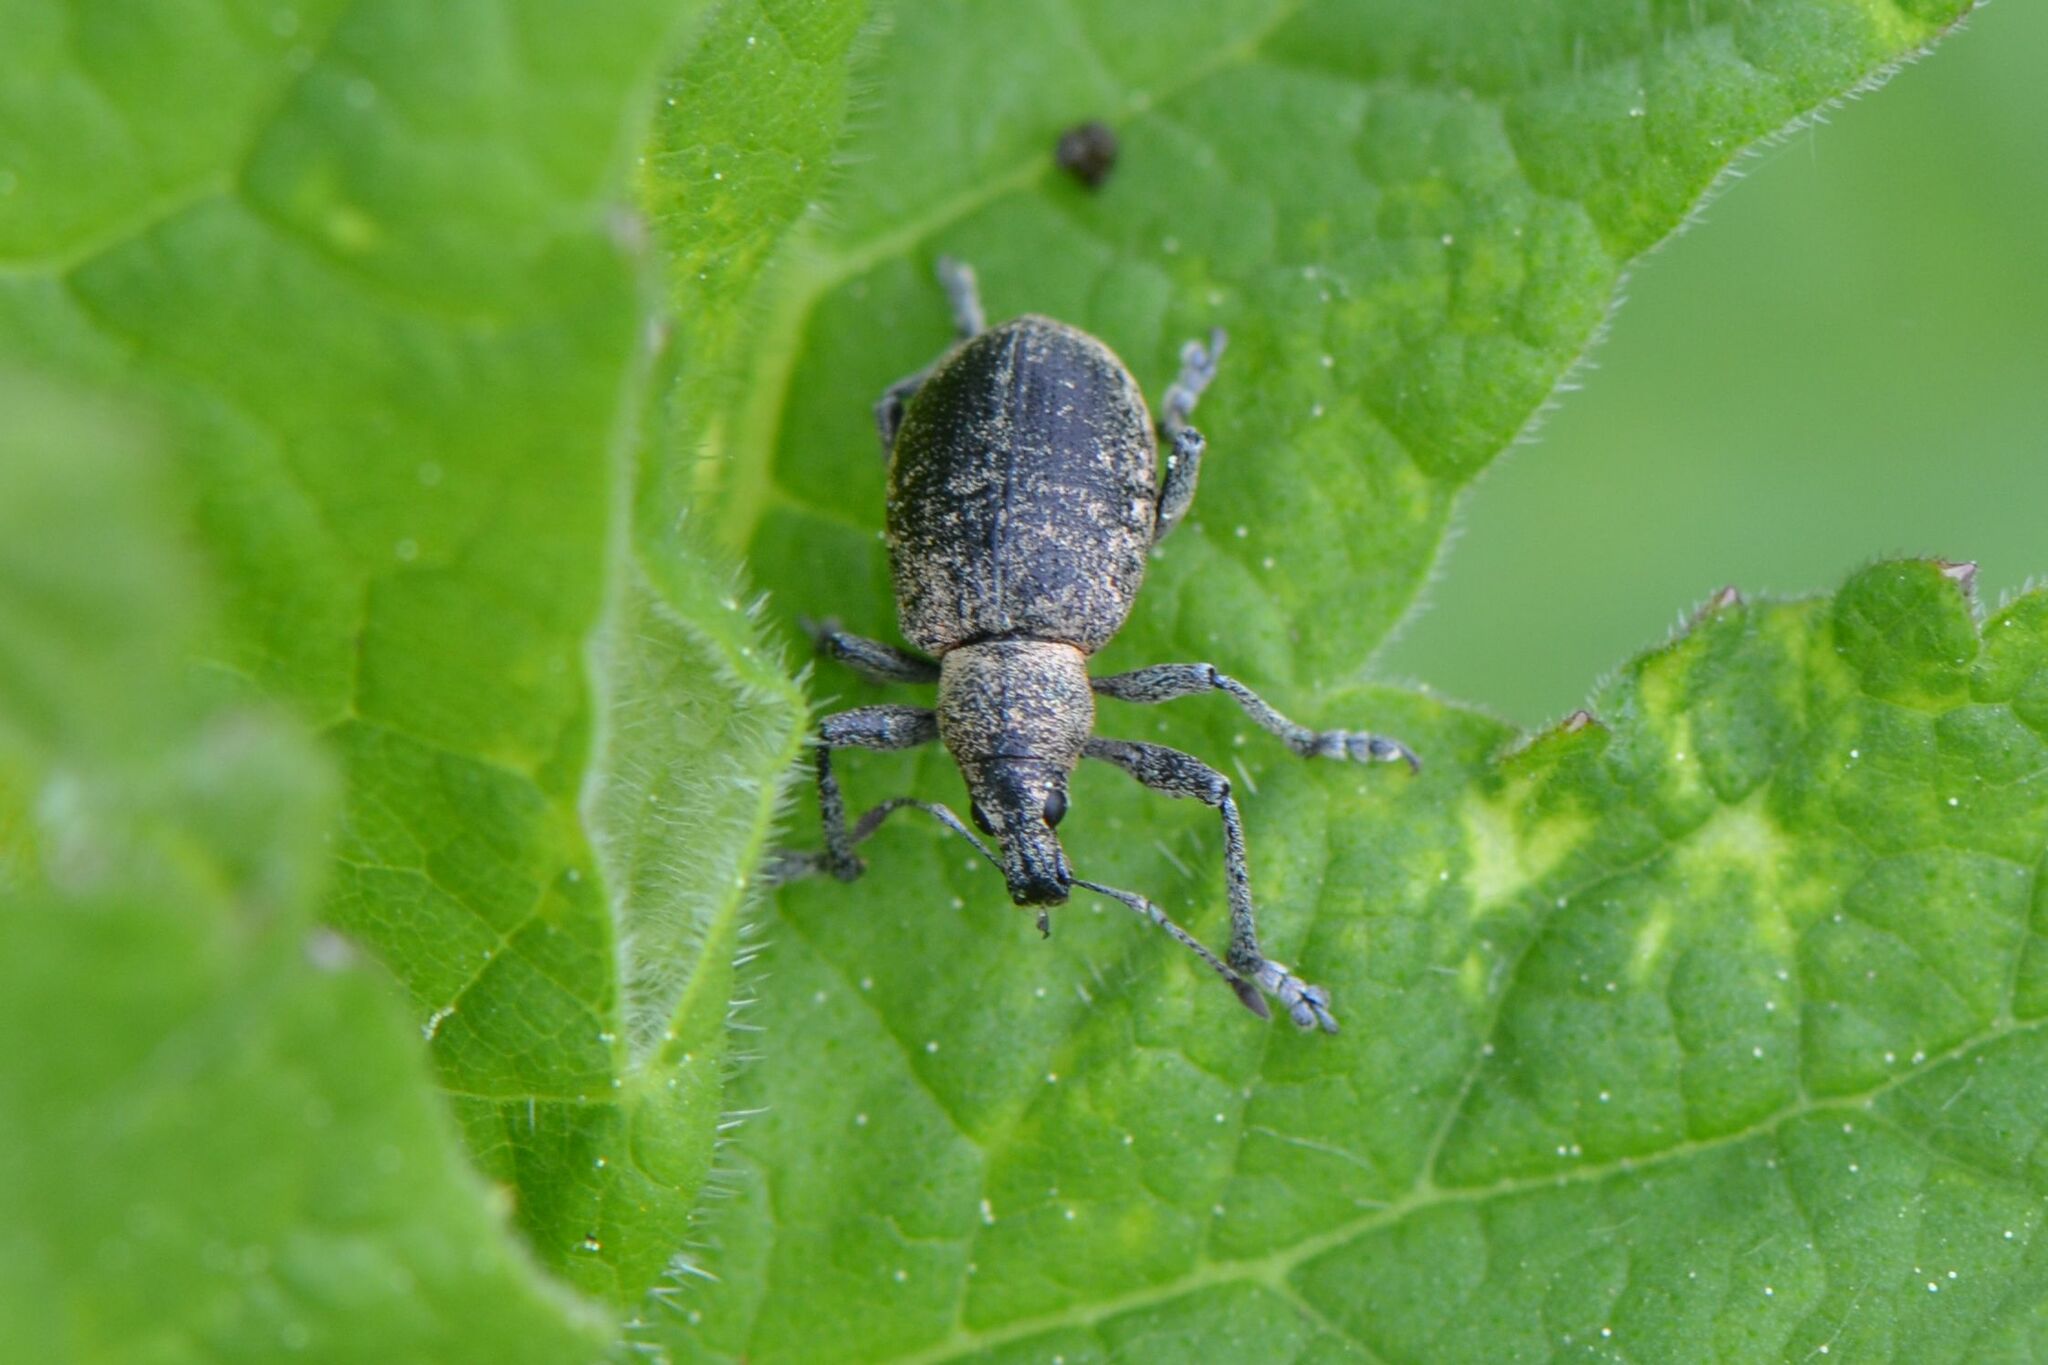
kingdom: Animalia
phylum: Arthropoda
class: Insecta
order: Coleoptera
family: Curculionidae
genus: Liophloeus
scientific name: Liophloeus tessulatus
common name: Weevil
